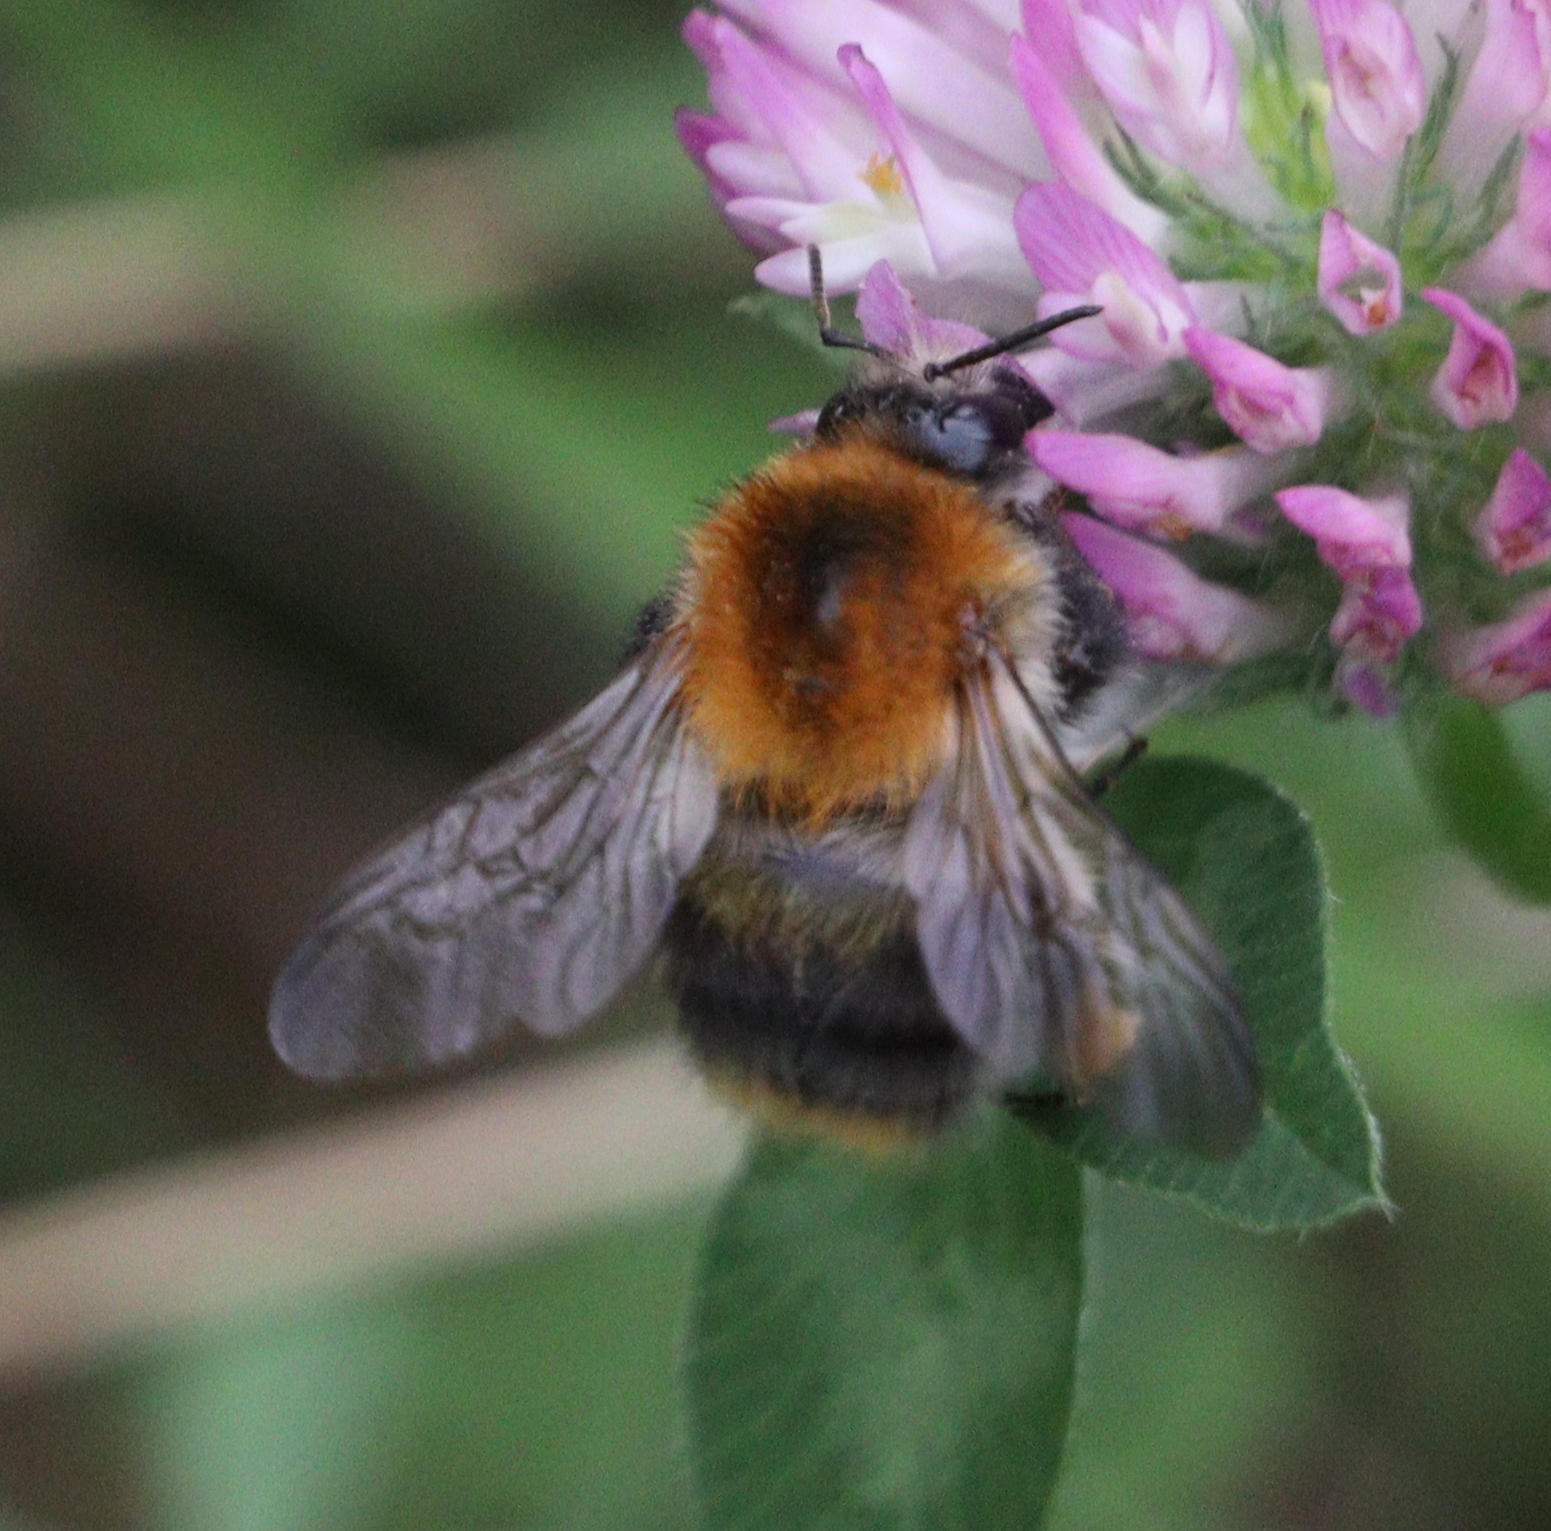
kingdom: Animalia
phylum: Arthropoda
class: Insecta
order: Hymenoptera
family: Apidae
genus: Bombus
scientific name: Bombus pascuorum
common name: Common carder bee
